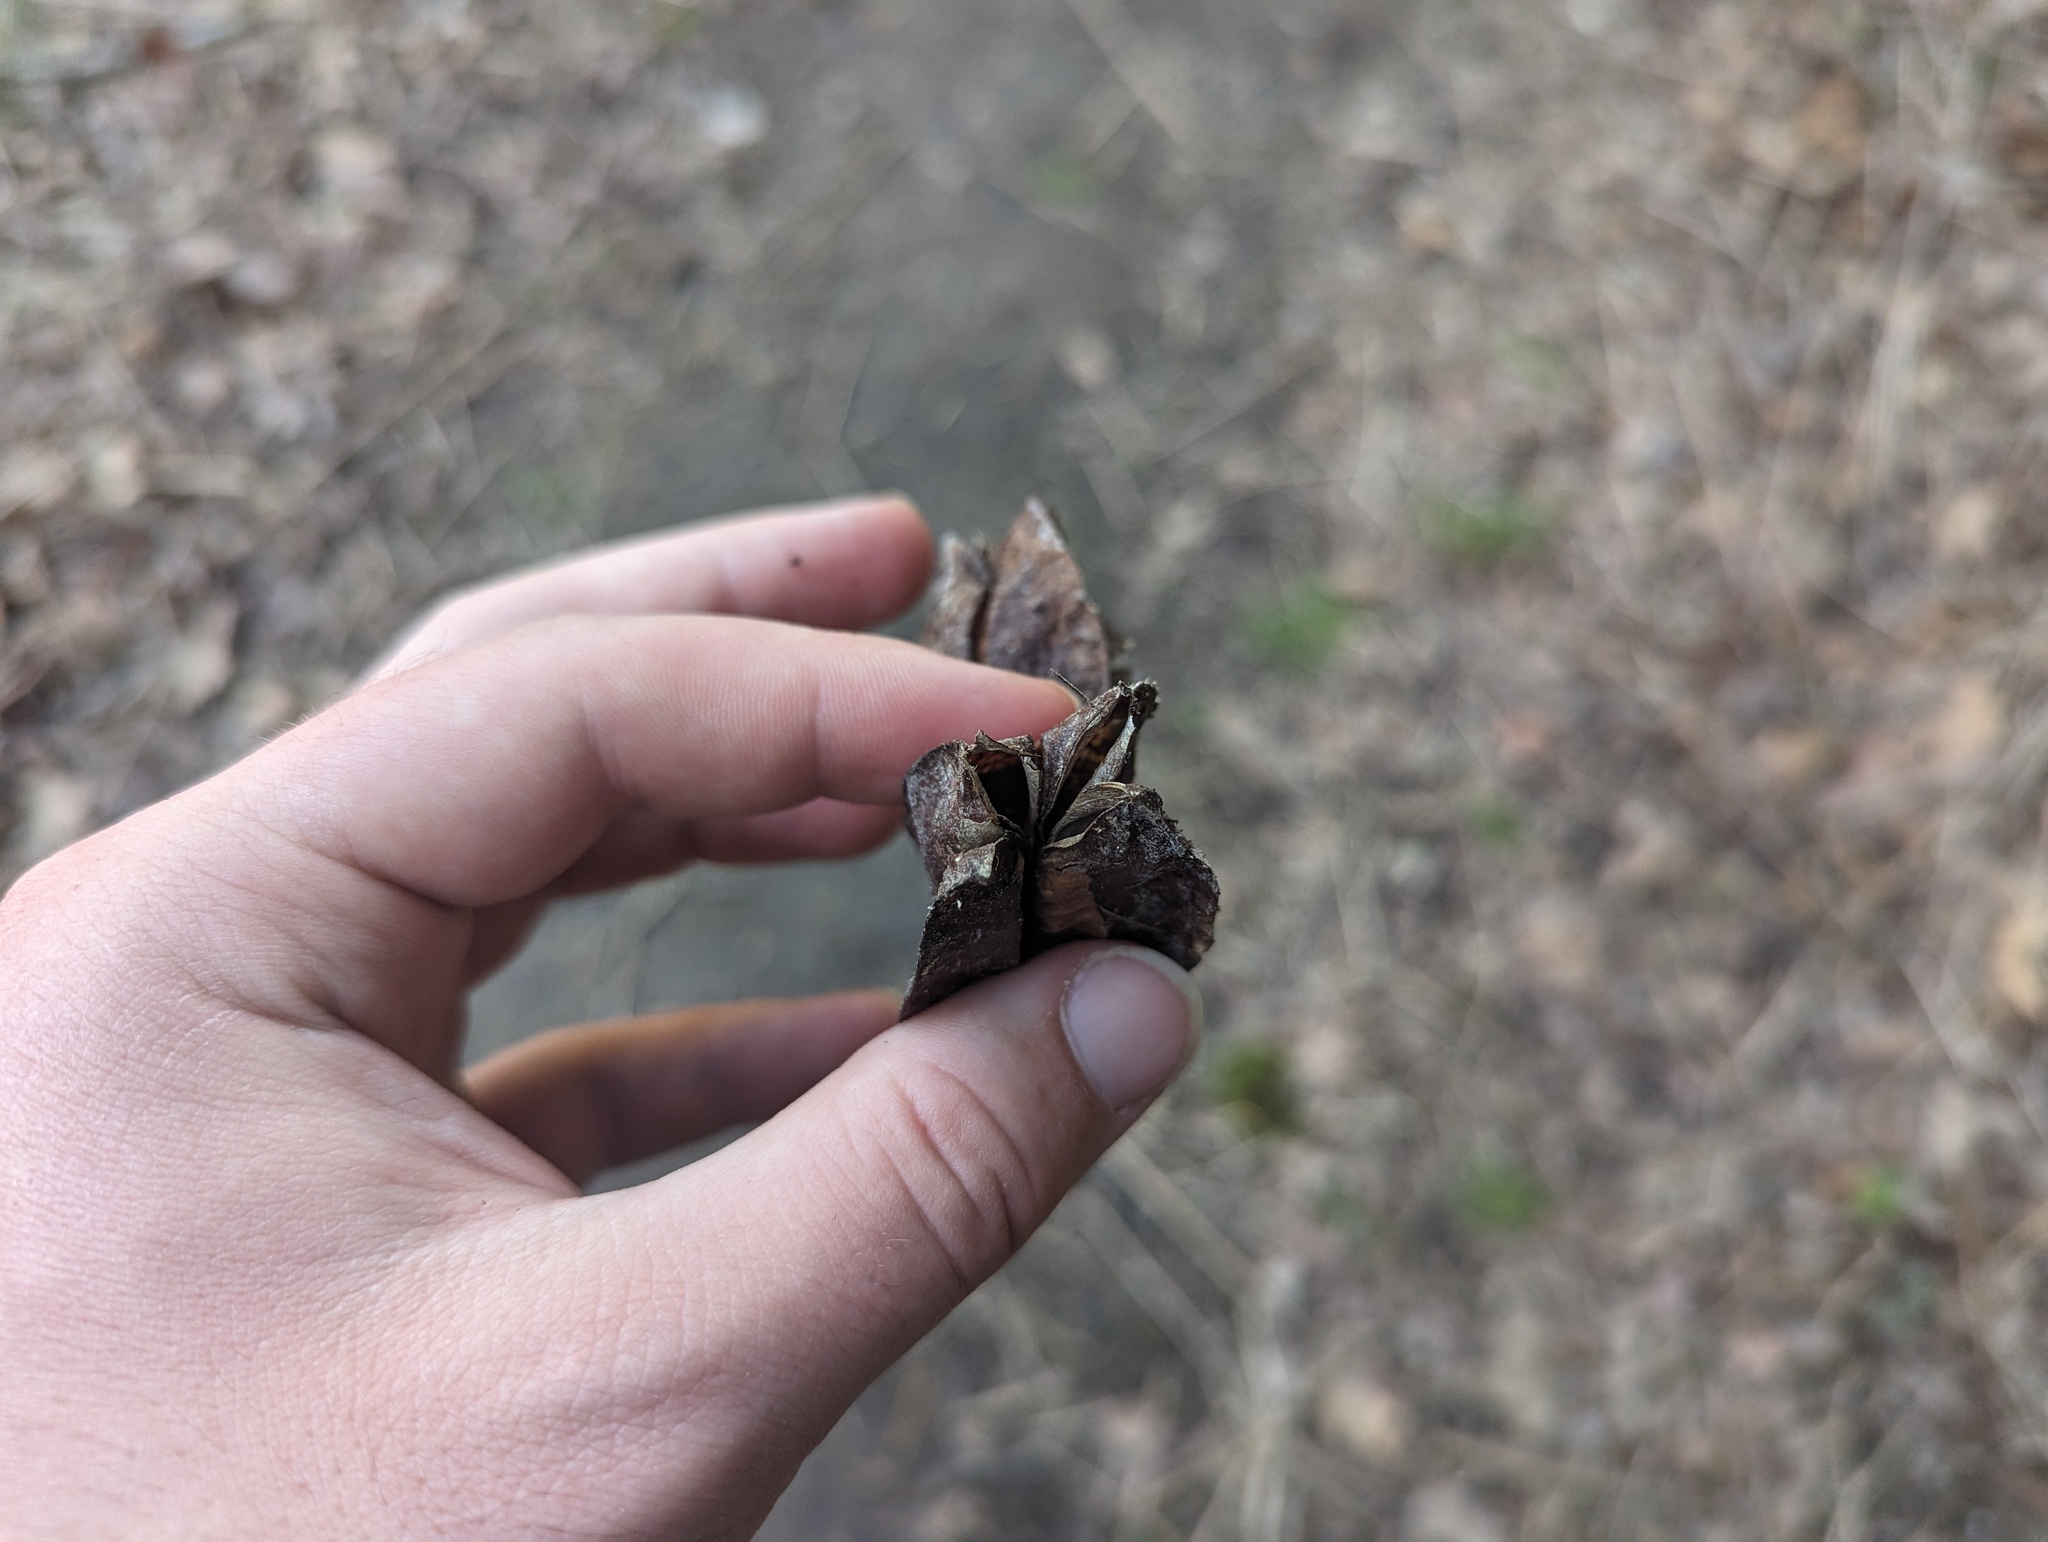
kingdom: Plantae
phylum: Tracheophyta
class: Magnoliopsida
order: Crossosomatales
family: Staphyleaceae
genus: Staphylea
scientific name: Staphylea trifolia
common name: American bladdernut
